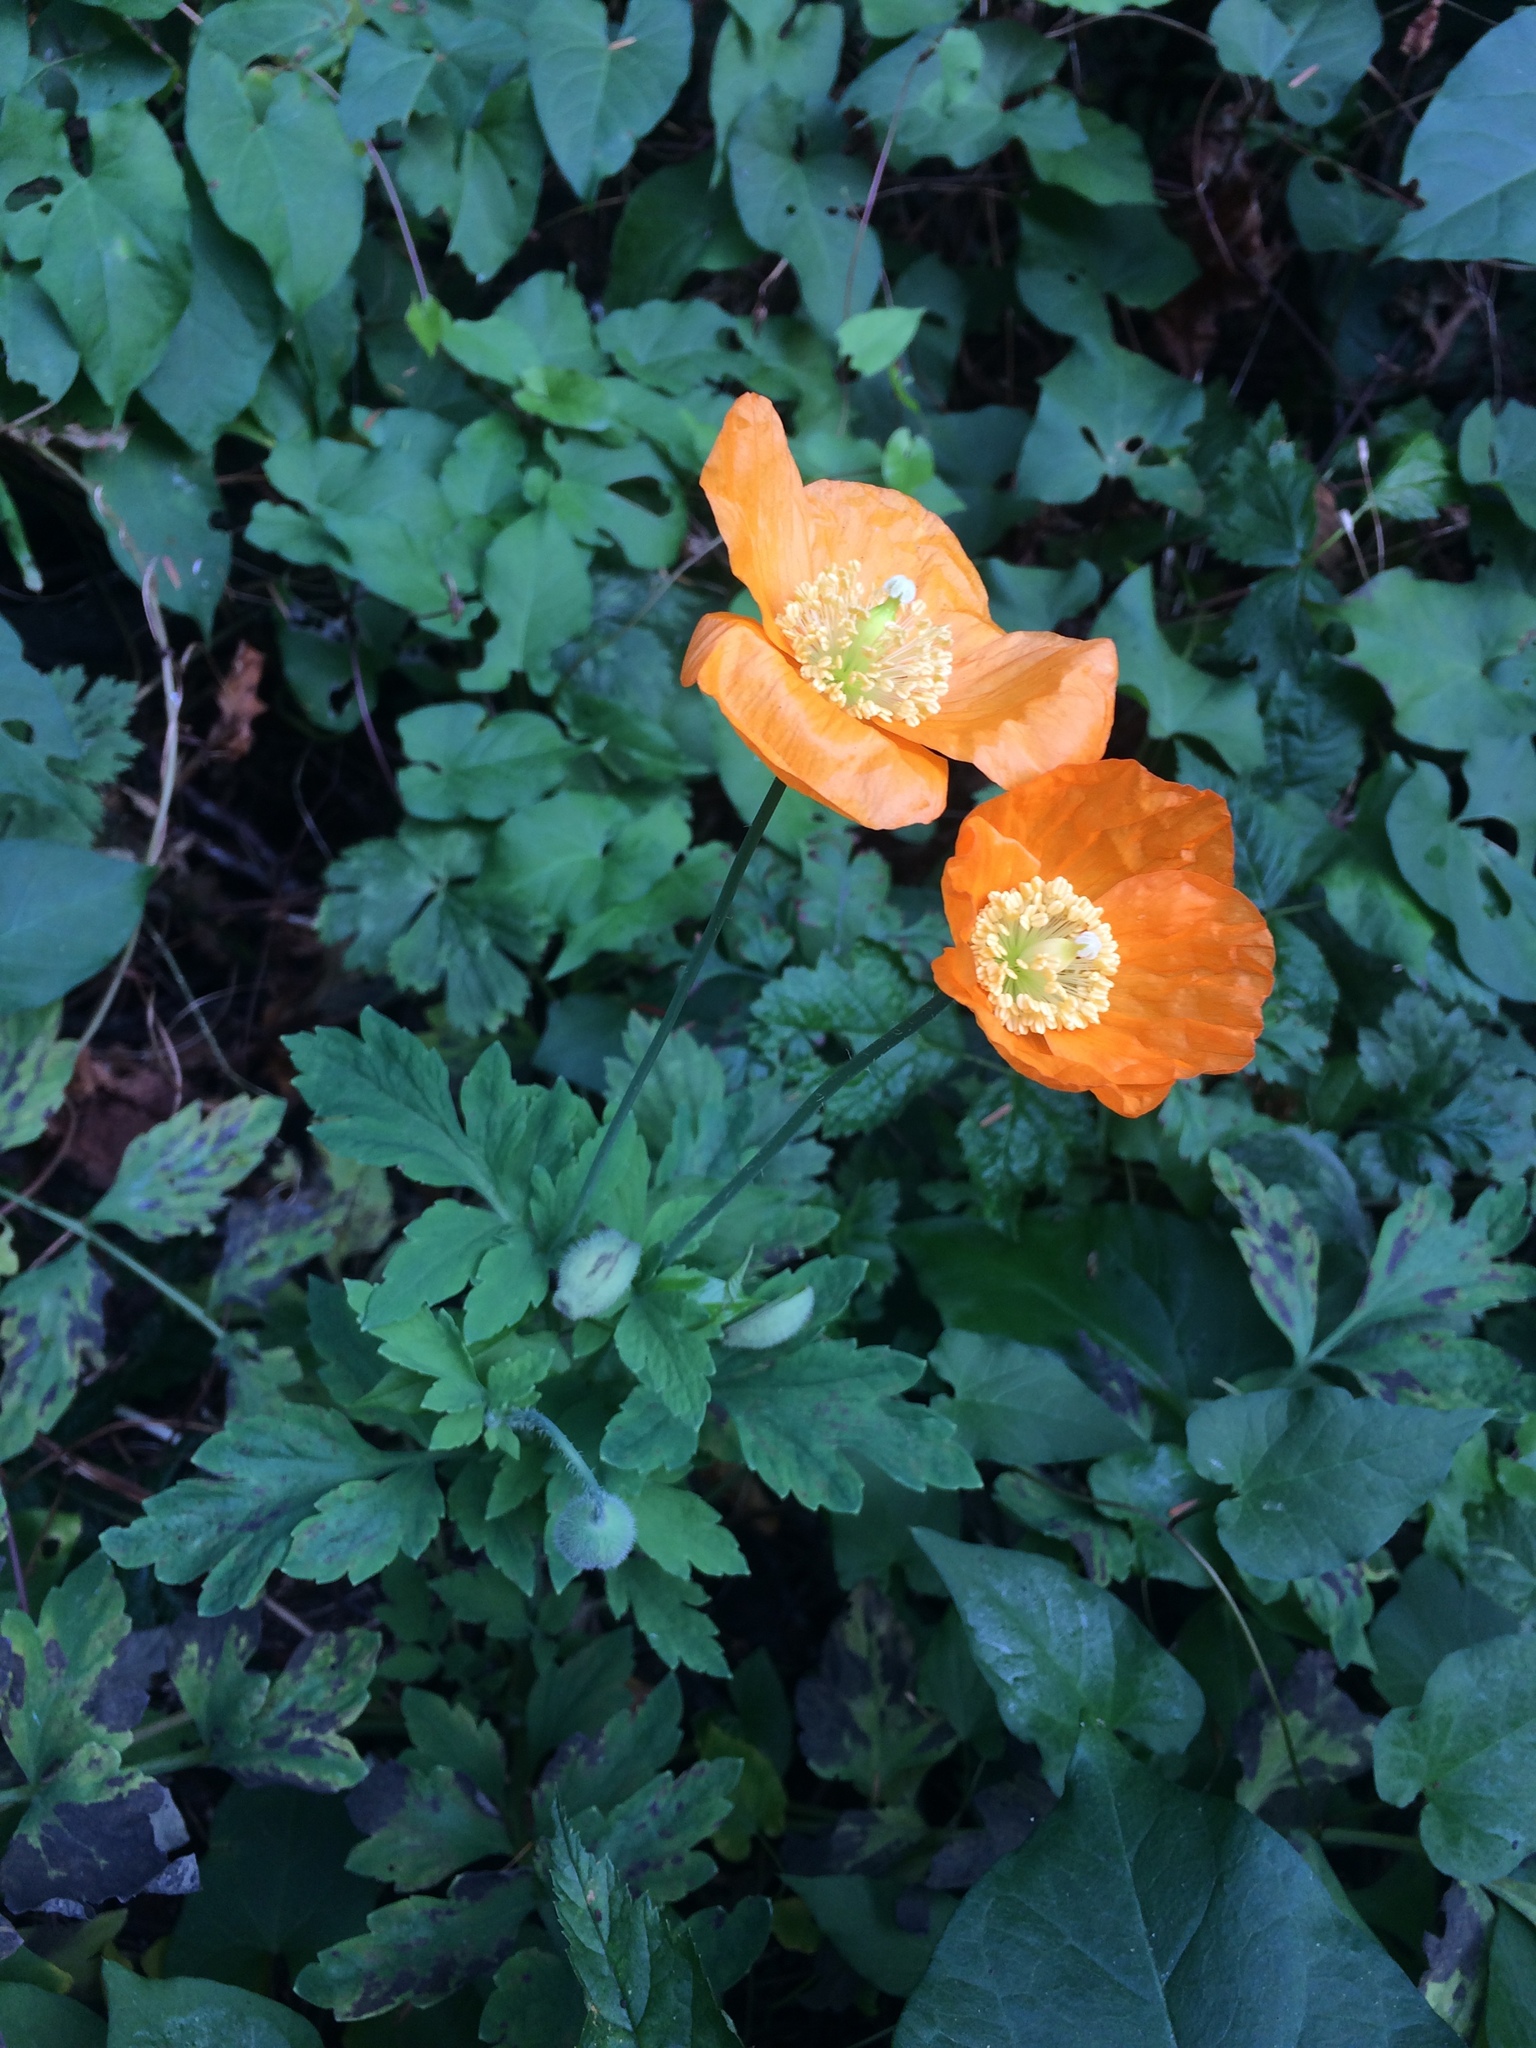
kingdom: Plantae
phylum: Tracheophyta
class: Magnoliopsida
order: Ranunculales
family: Papaveraceae
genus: Papaver
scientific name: Papaver cambricum
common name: Poppy
